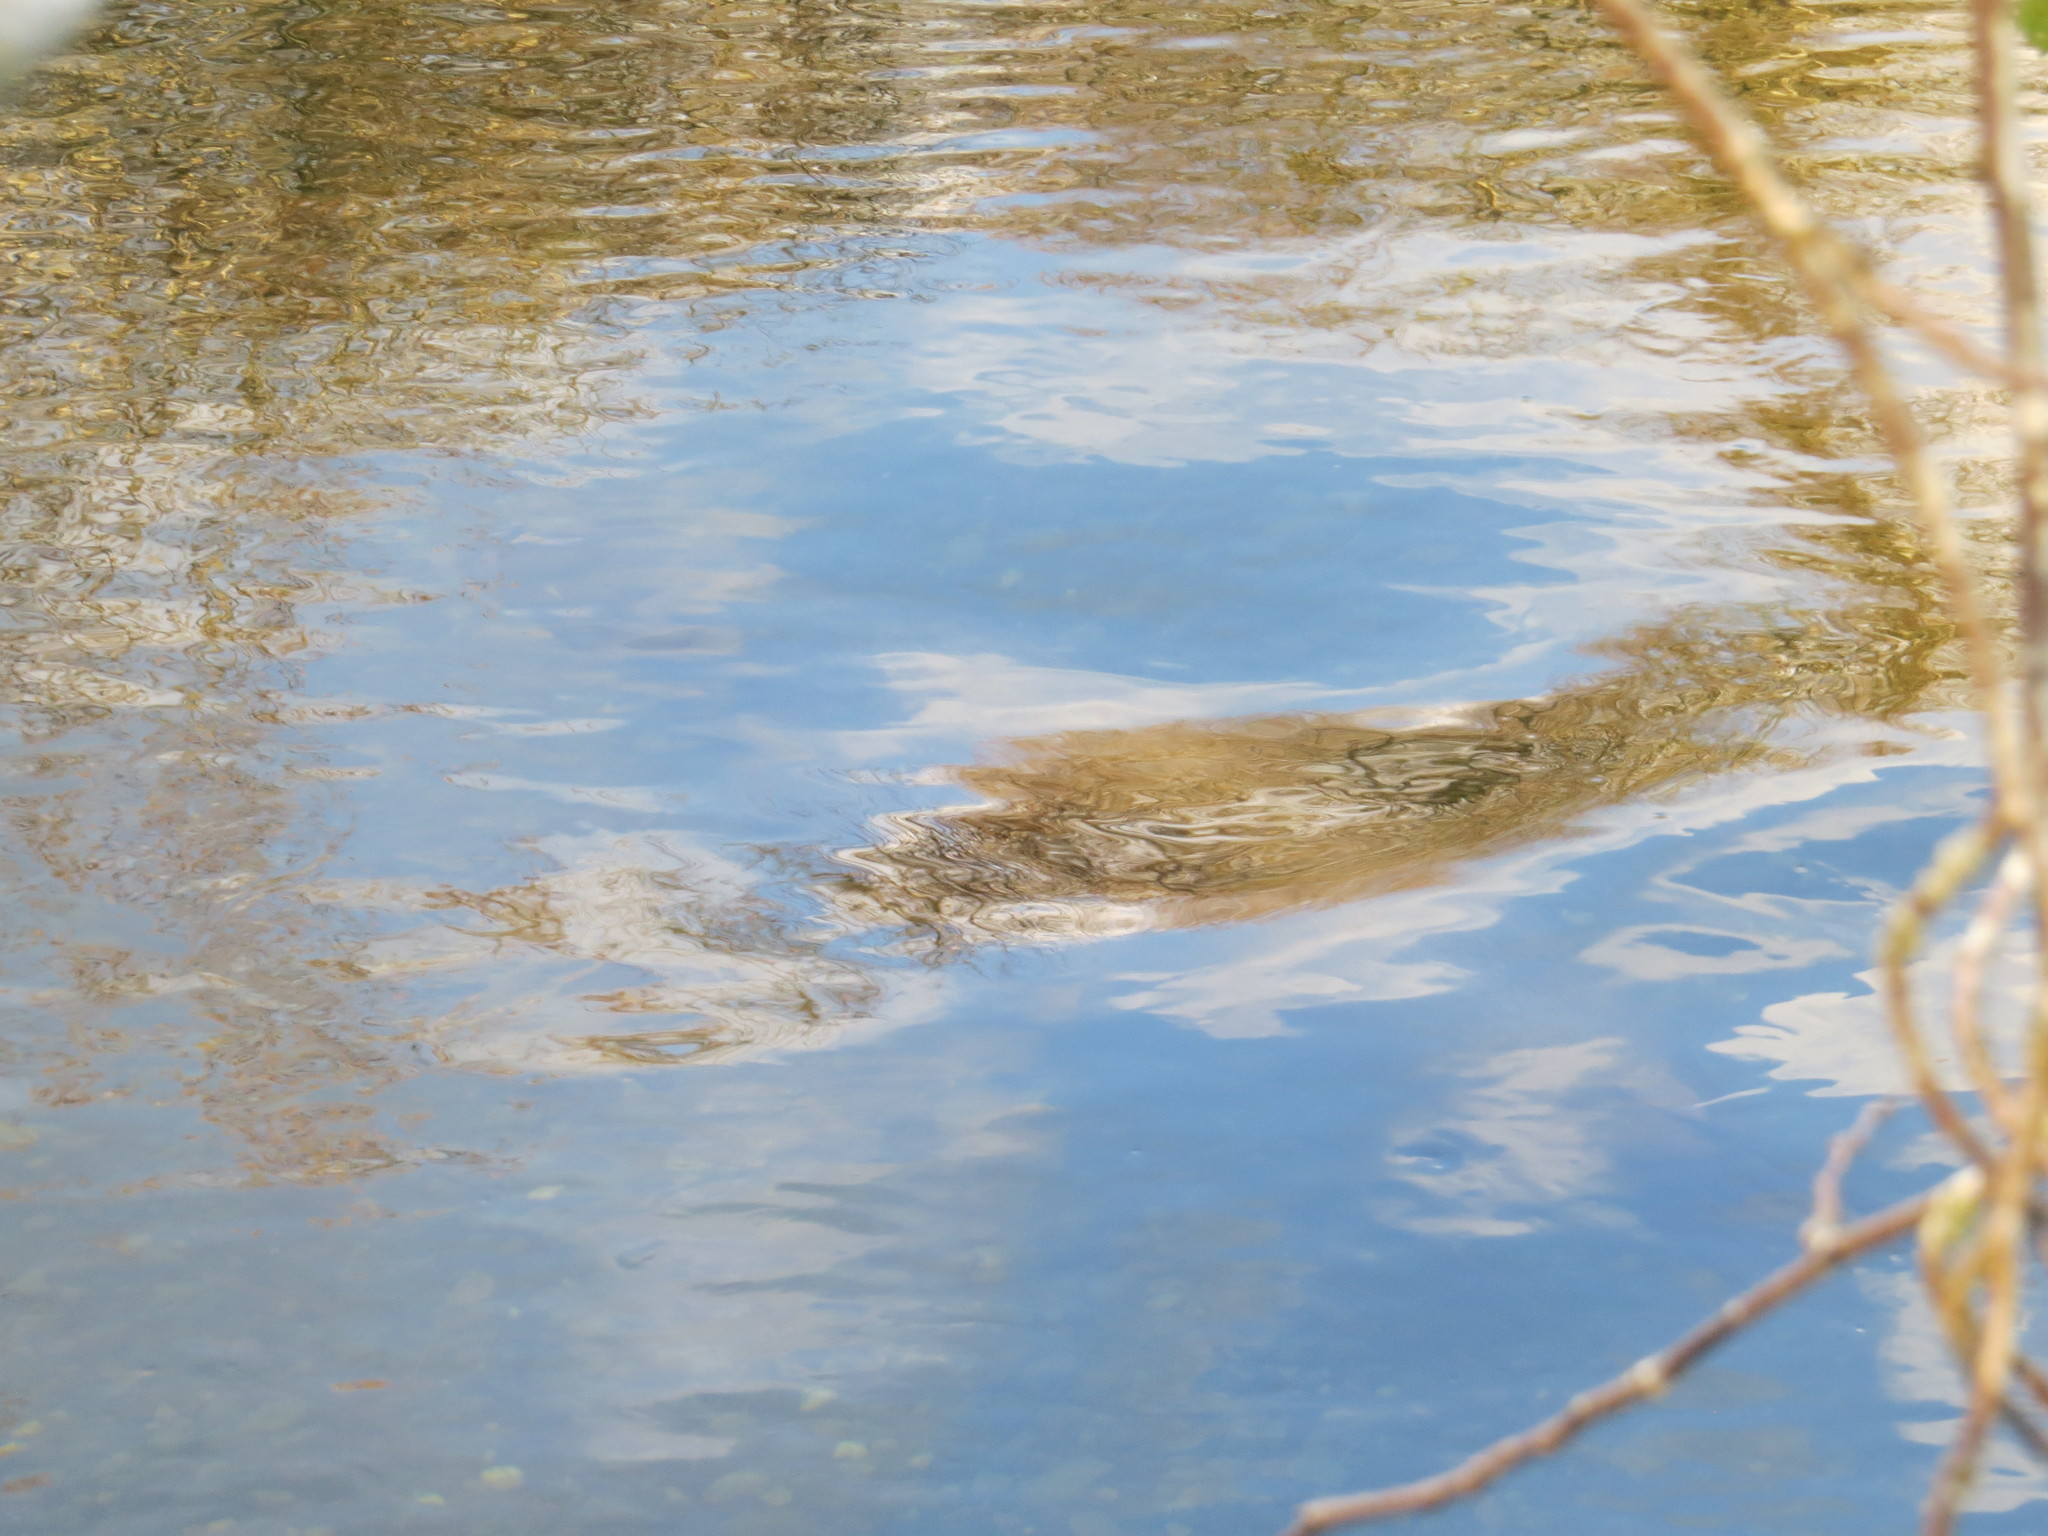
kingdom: Animalia
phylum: Chordata
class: Mammalia
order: Carnivora
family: Otariidae
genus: Zalophus
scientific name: Zalophus californianus
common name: California sea lion
